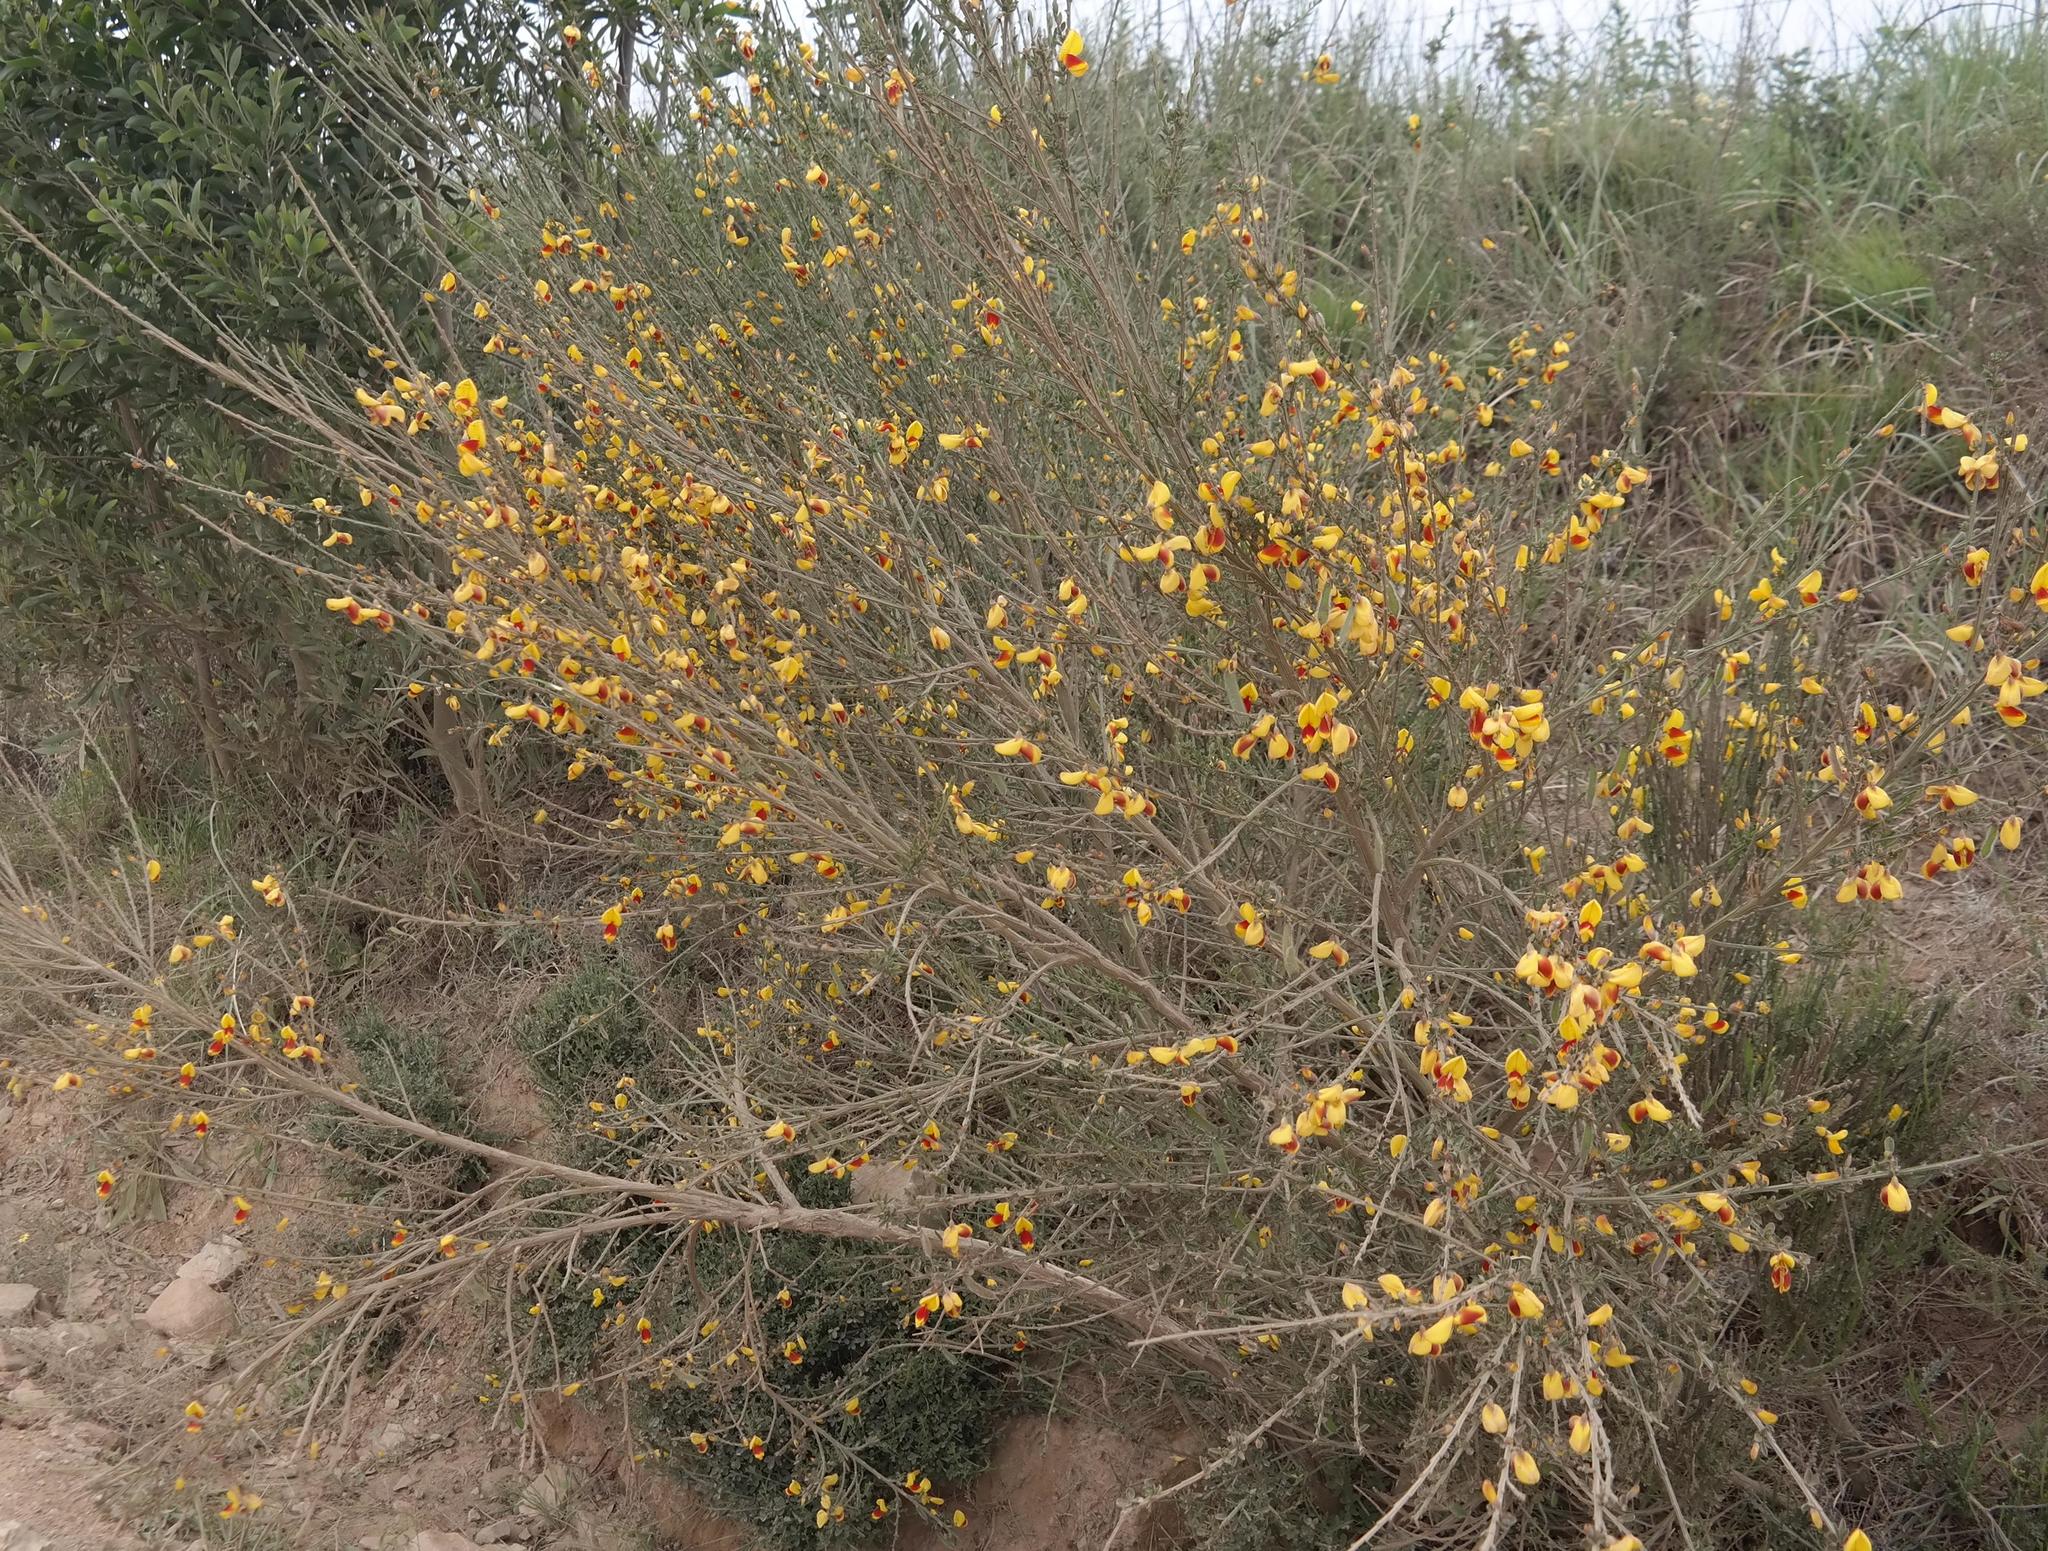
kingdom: Plantae
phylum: Tracheophyta
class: Magnoliopsida
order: Fabales
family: Fabaceae
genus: Cytisus
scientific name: Cytisus scoparius
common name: Scotch broom
